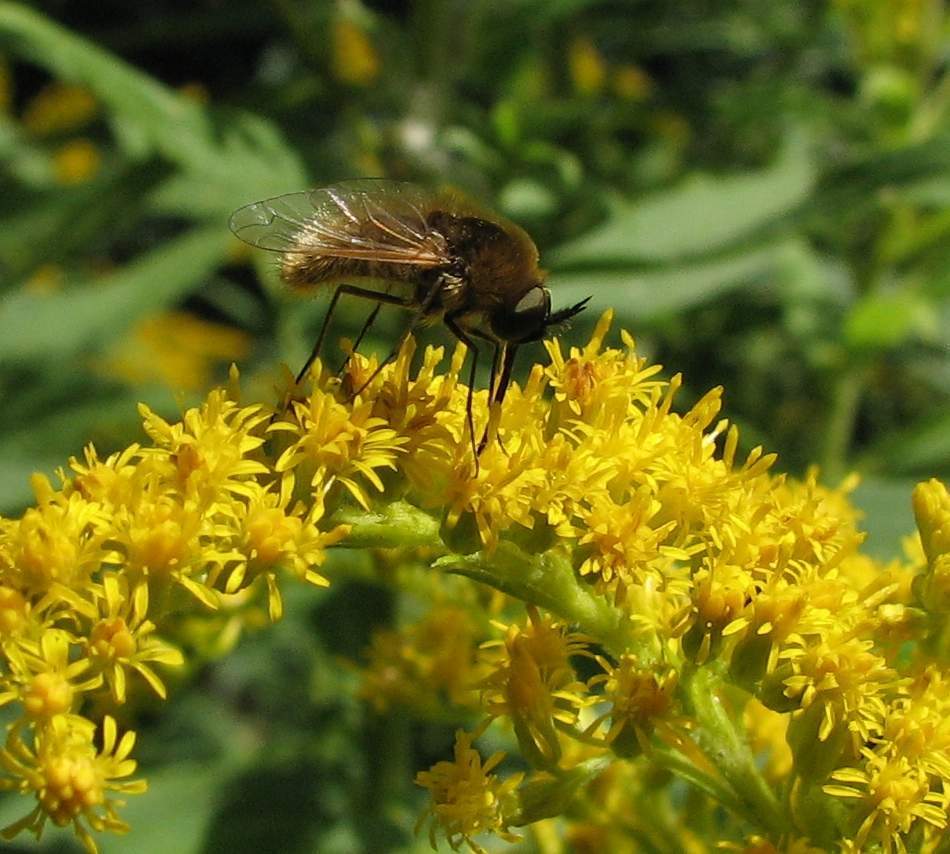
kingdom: Animalia
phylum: Arthropoda
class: Insecta
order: Diptera
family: Bombyliidae
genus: Sparnopolius
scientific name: Sparnopolius confusus
